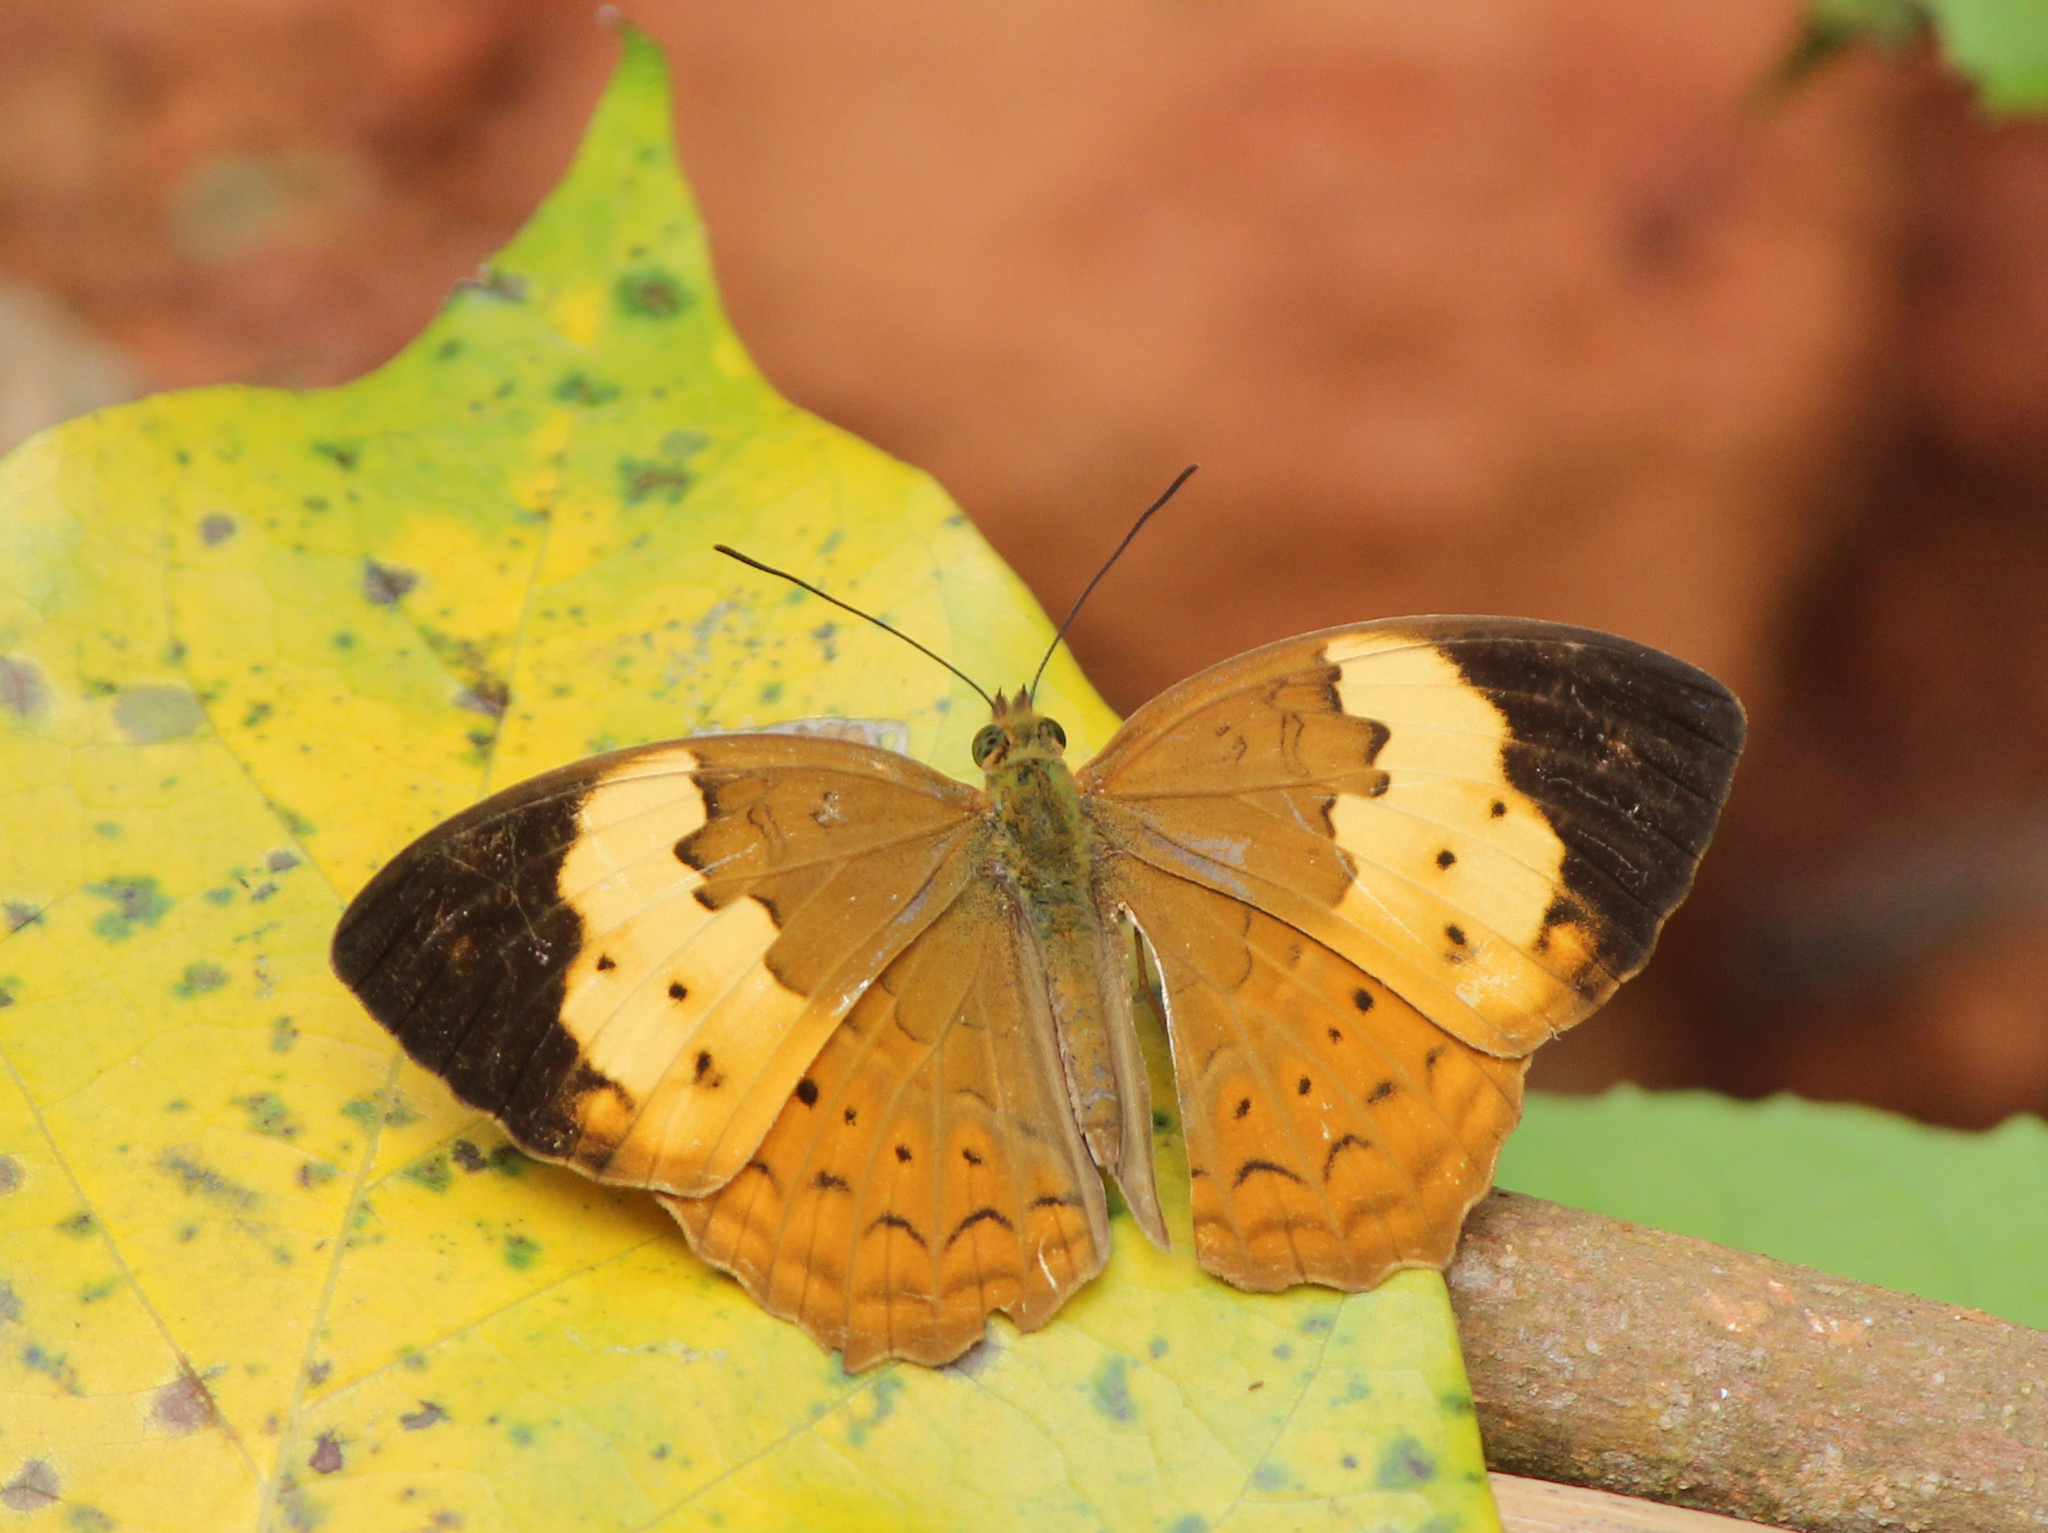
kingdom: Animalia
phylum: Arthropoda
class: Insecta
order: Lepidoptera
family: Nymphalidae
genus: Cupha
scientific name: Cupha erymanthis
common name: Rustic
